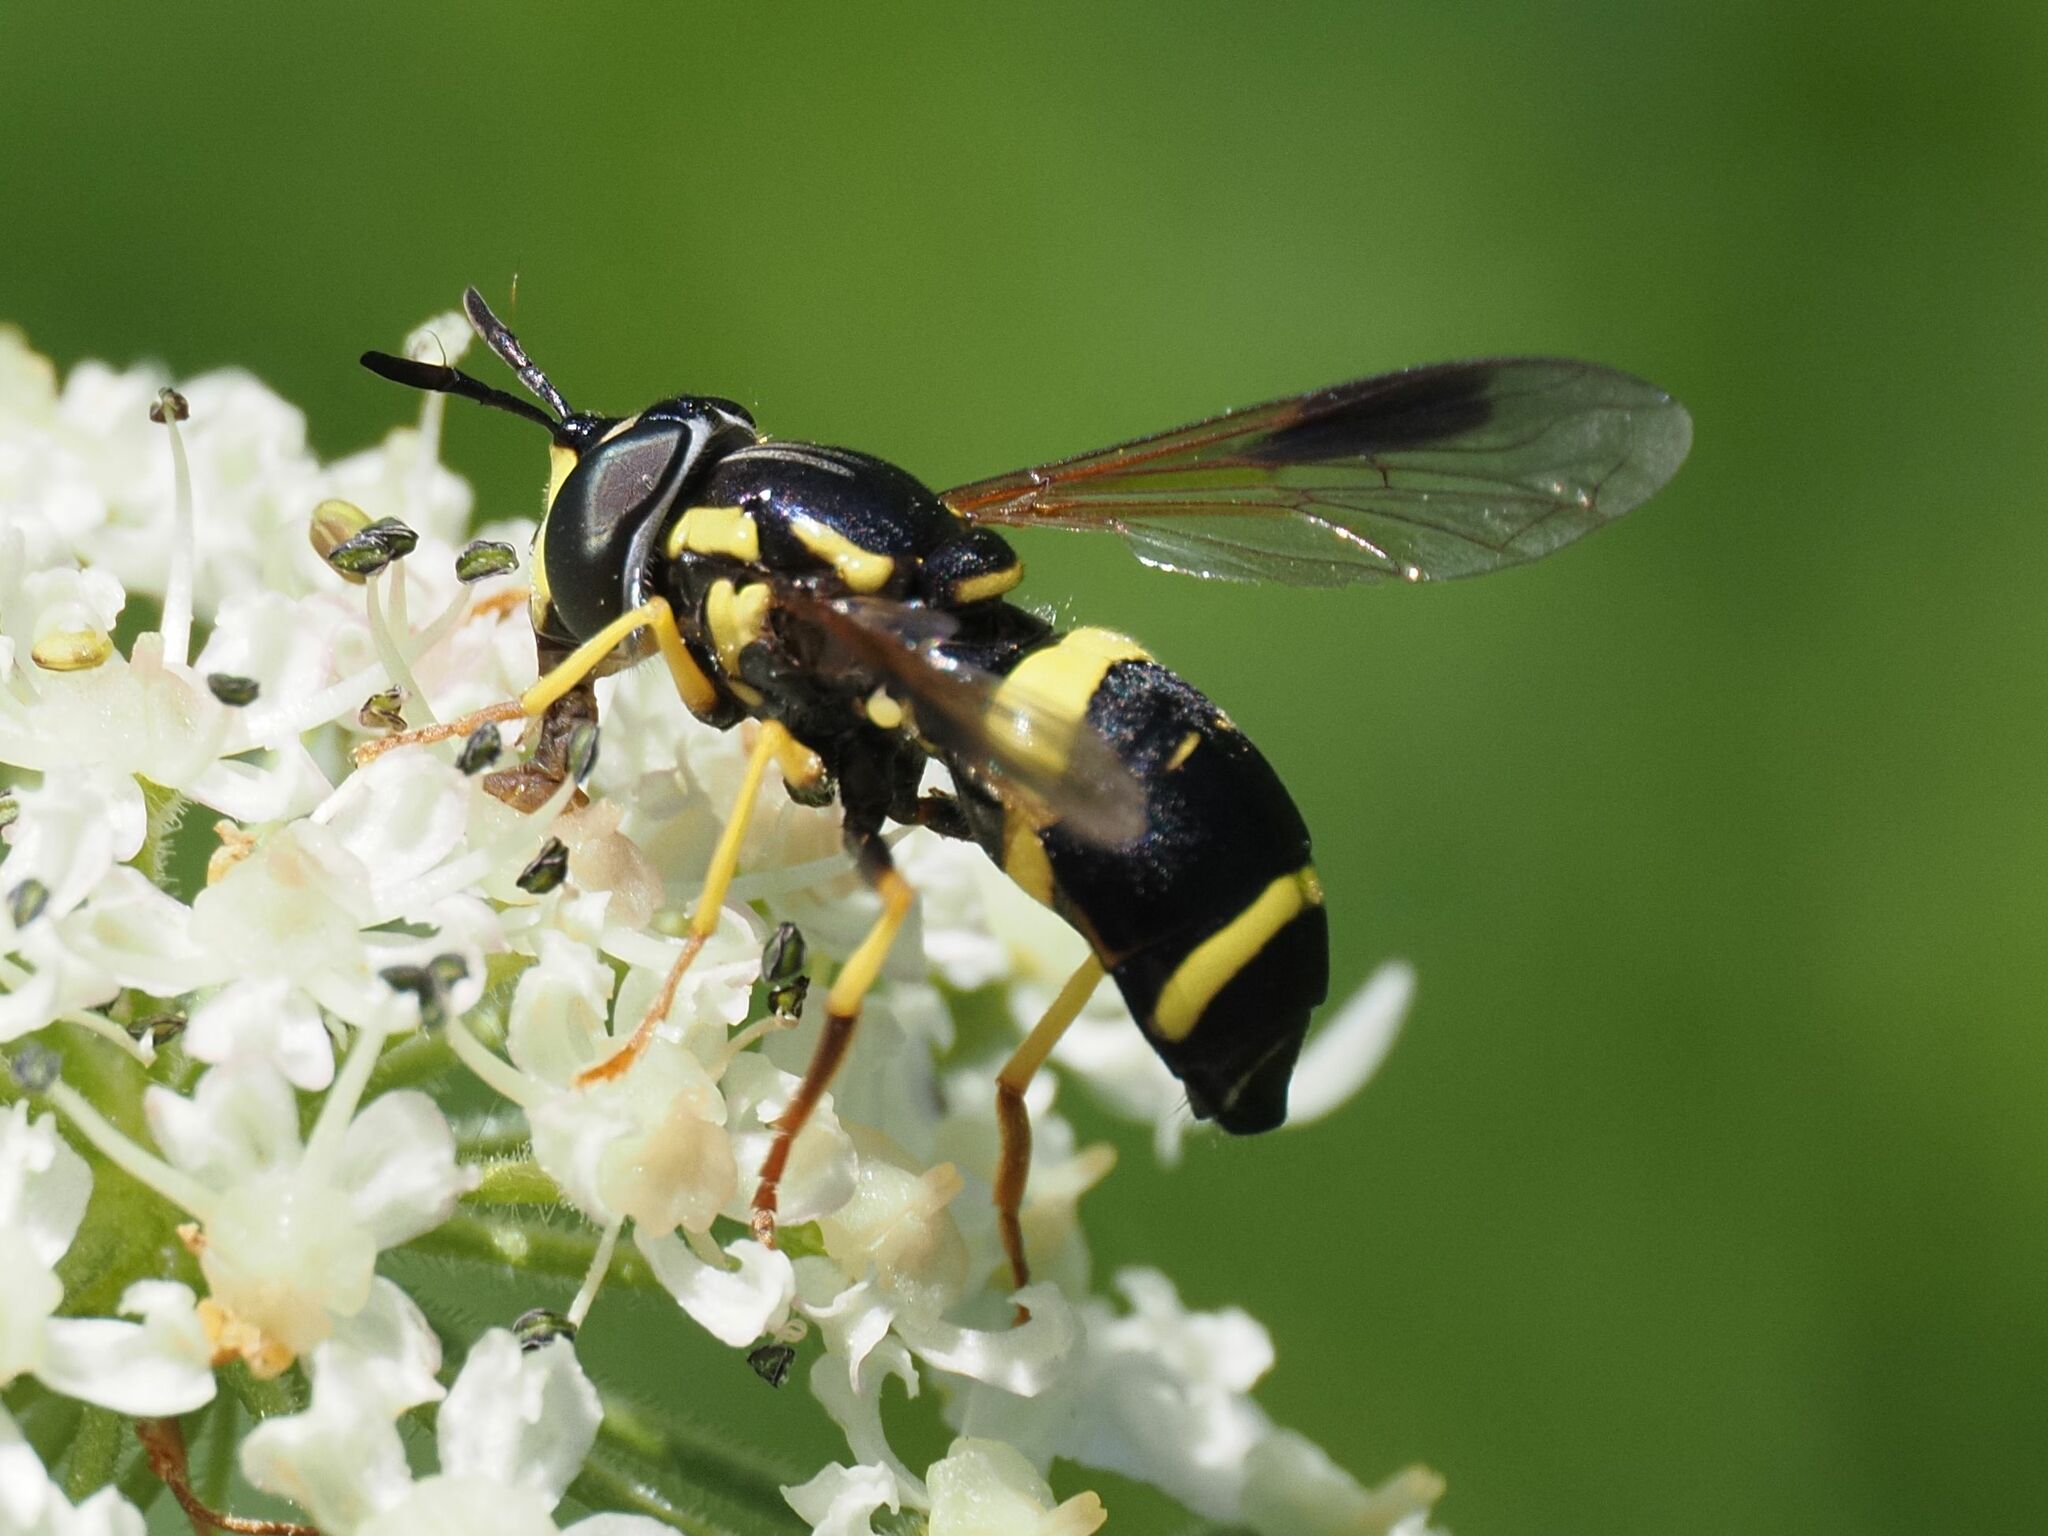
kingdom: Animalia
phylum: Arthropoda
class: Insecta
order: Diptera
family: Syrphidae
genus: Chrysotoxum
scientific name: Chrysotoxum bicincta
